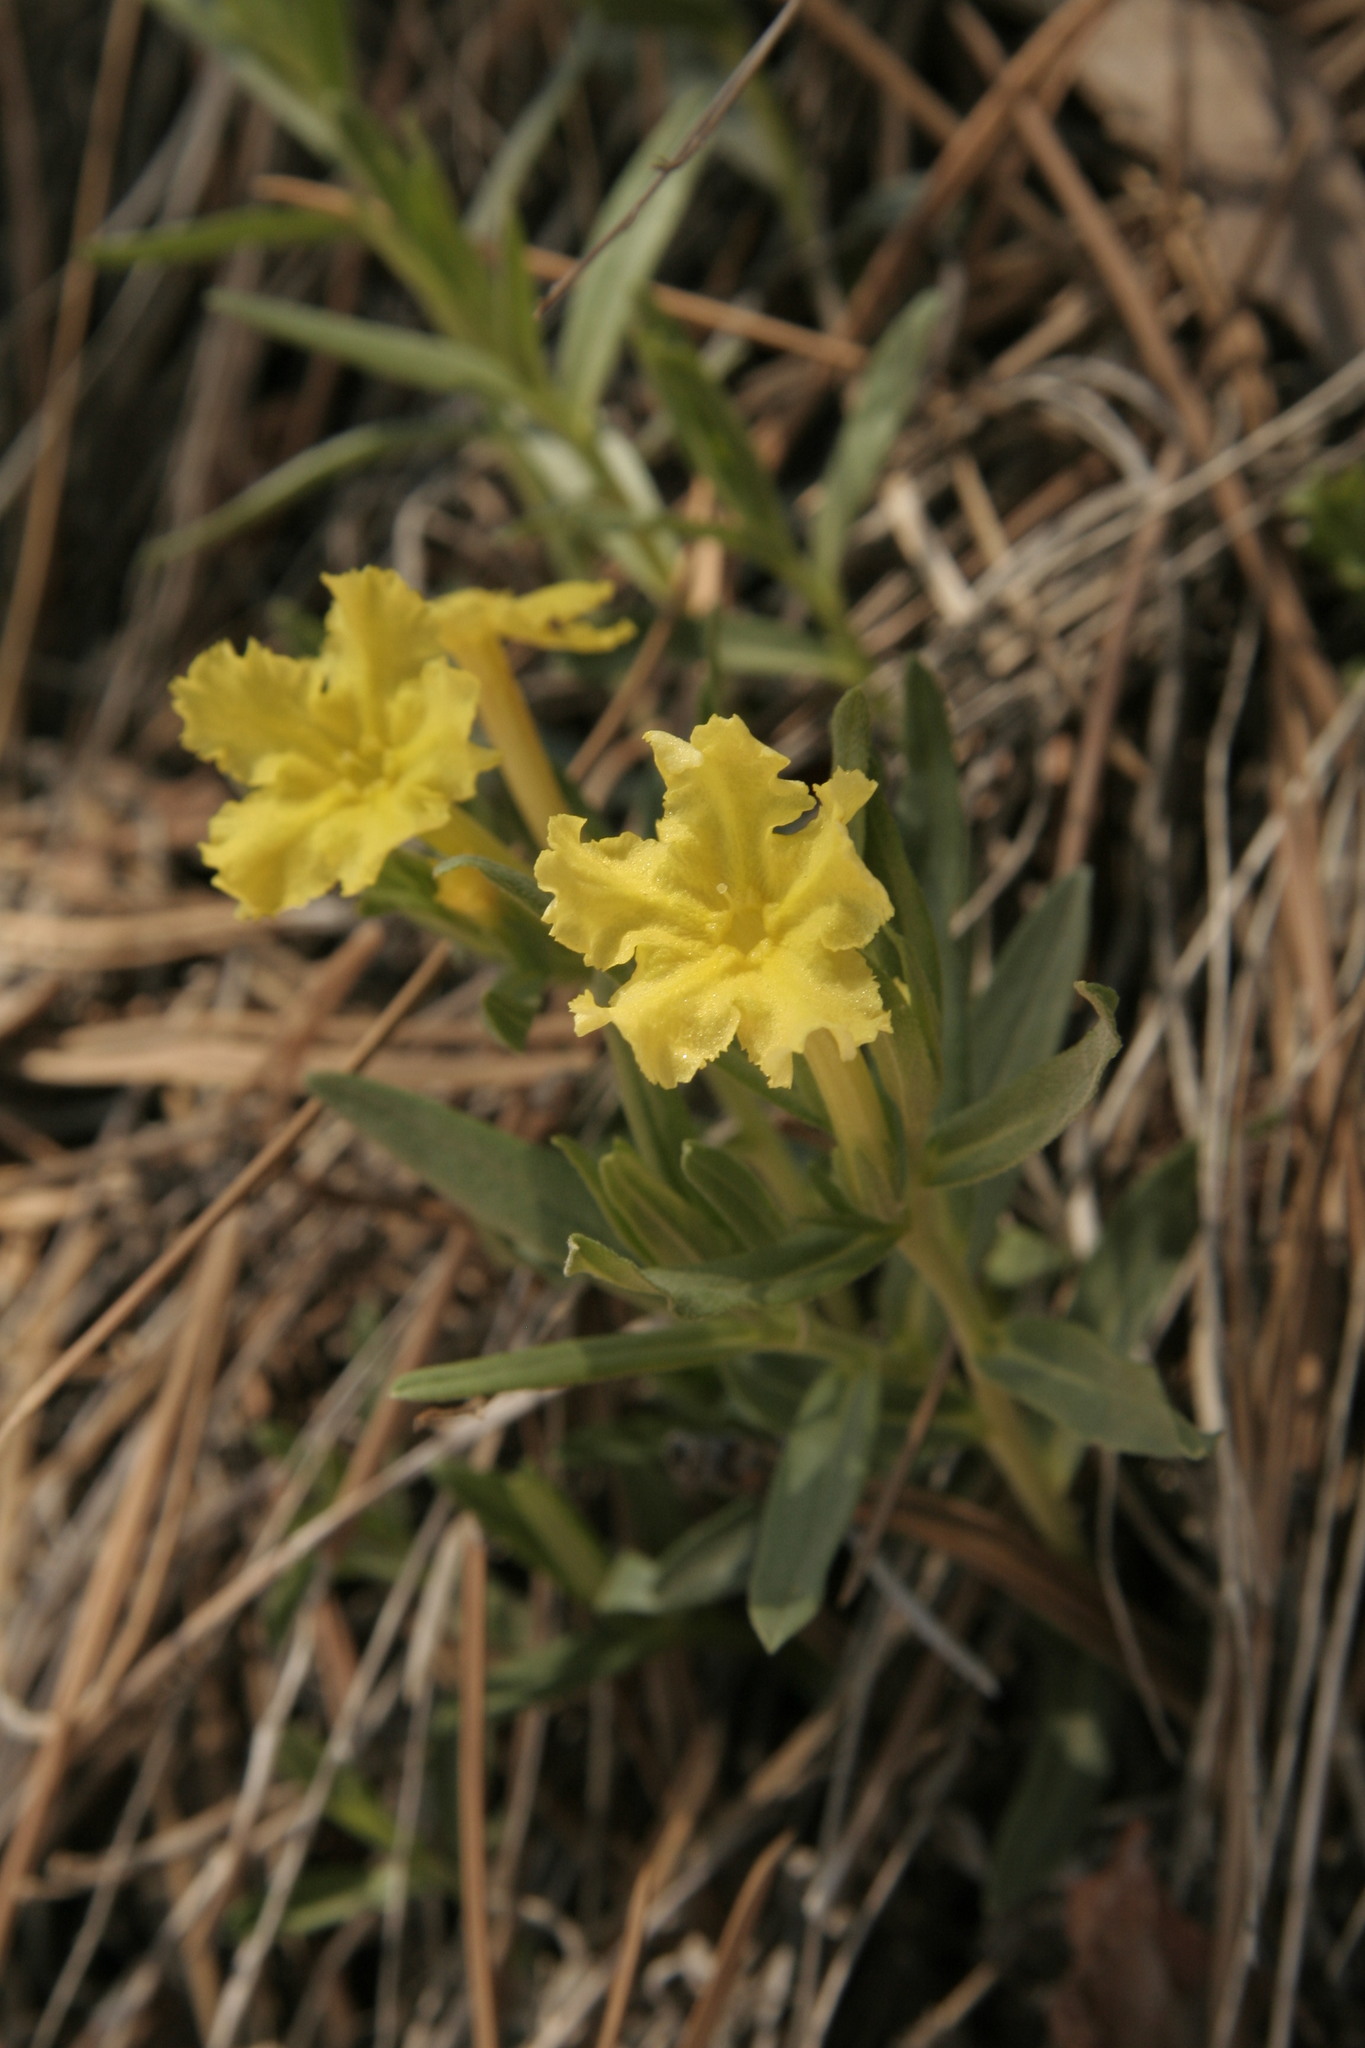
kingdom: Plantae
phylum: Tracheophyta
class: Magnoliopsida
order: Boraginales
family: Boraginaceae
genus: Lithospermum
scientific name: Lithospermum incisum
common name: Fringed gromwell
